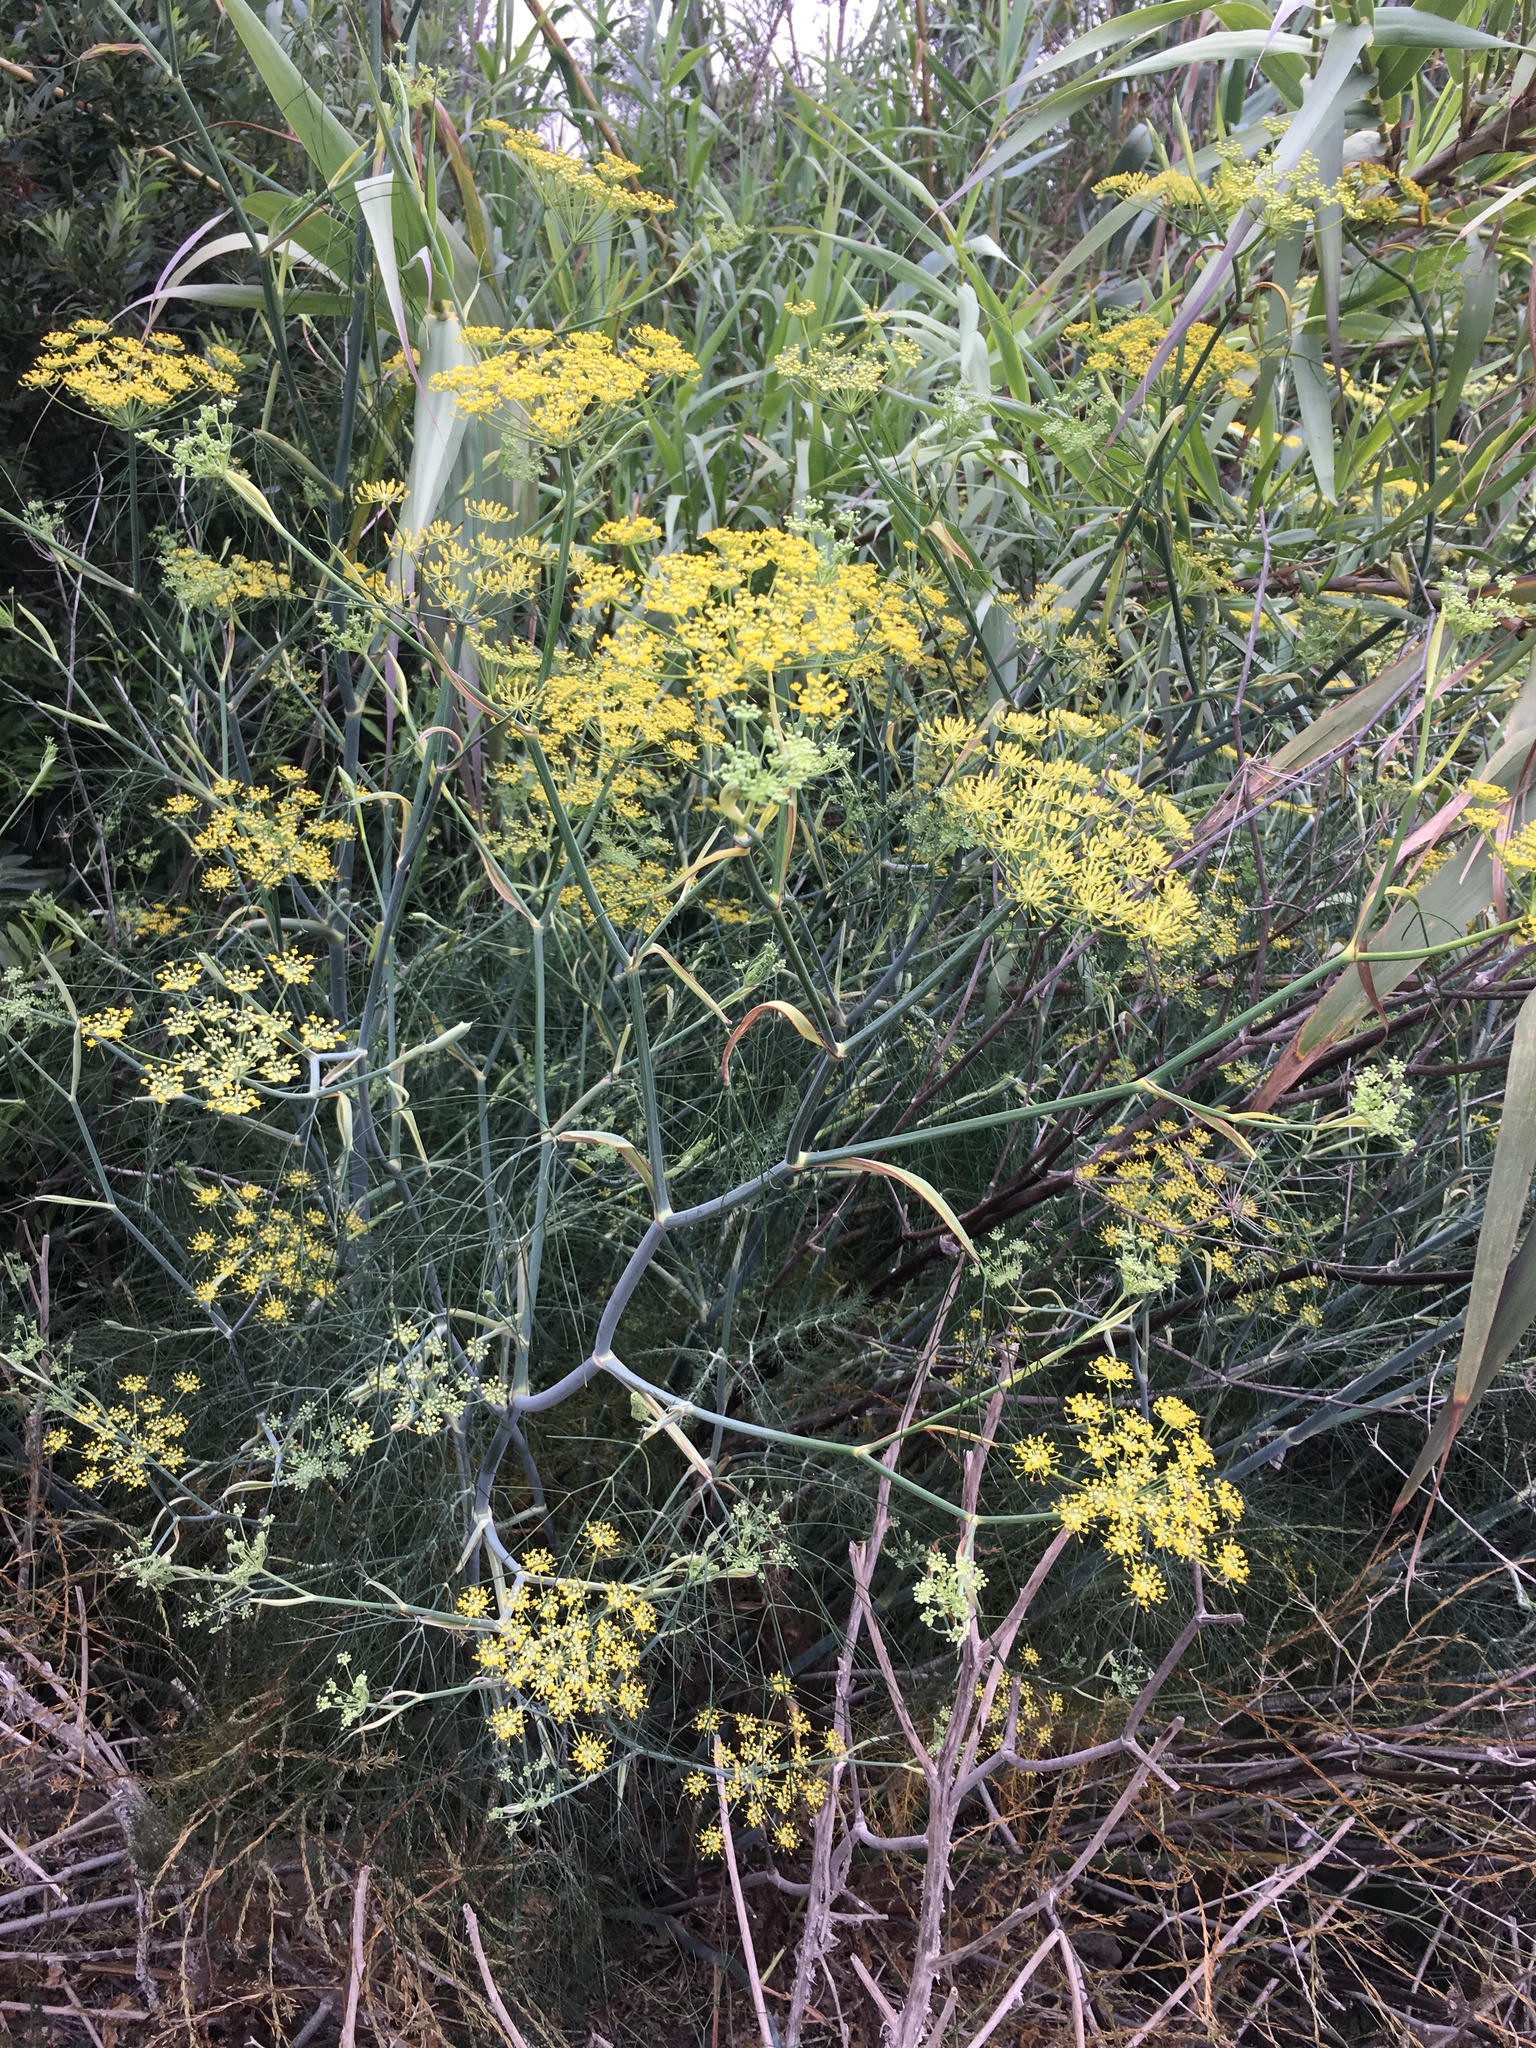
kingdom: Plantae
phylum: Tracheophyta
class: Magnoliopsida
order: Apiales
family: Apiaceae
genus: Foeniculum
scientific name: Foeniculum vulgare
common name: Fennel
